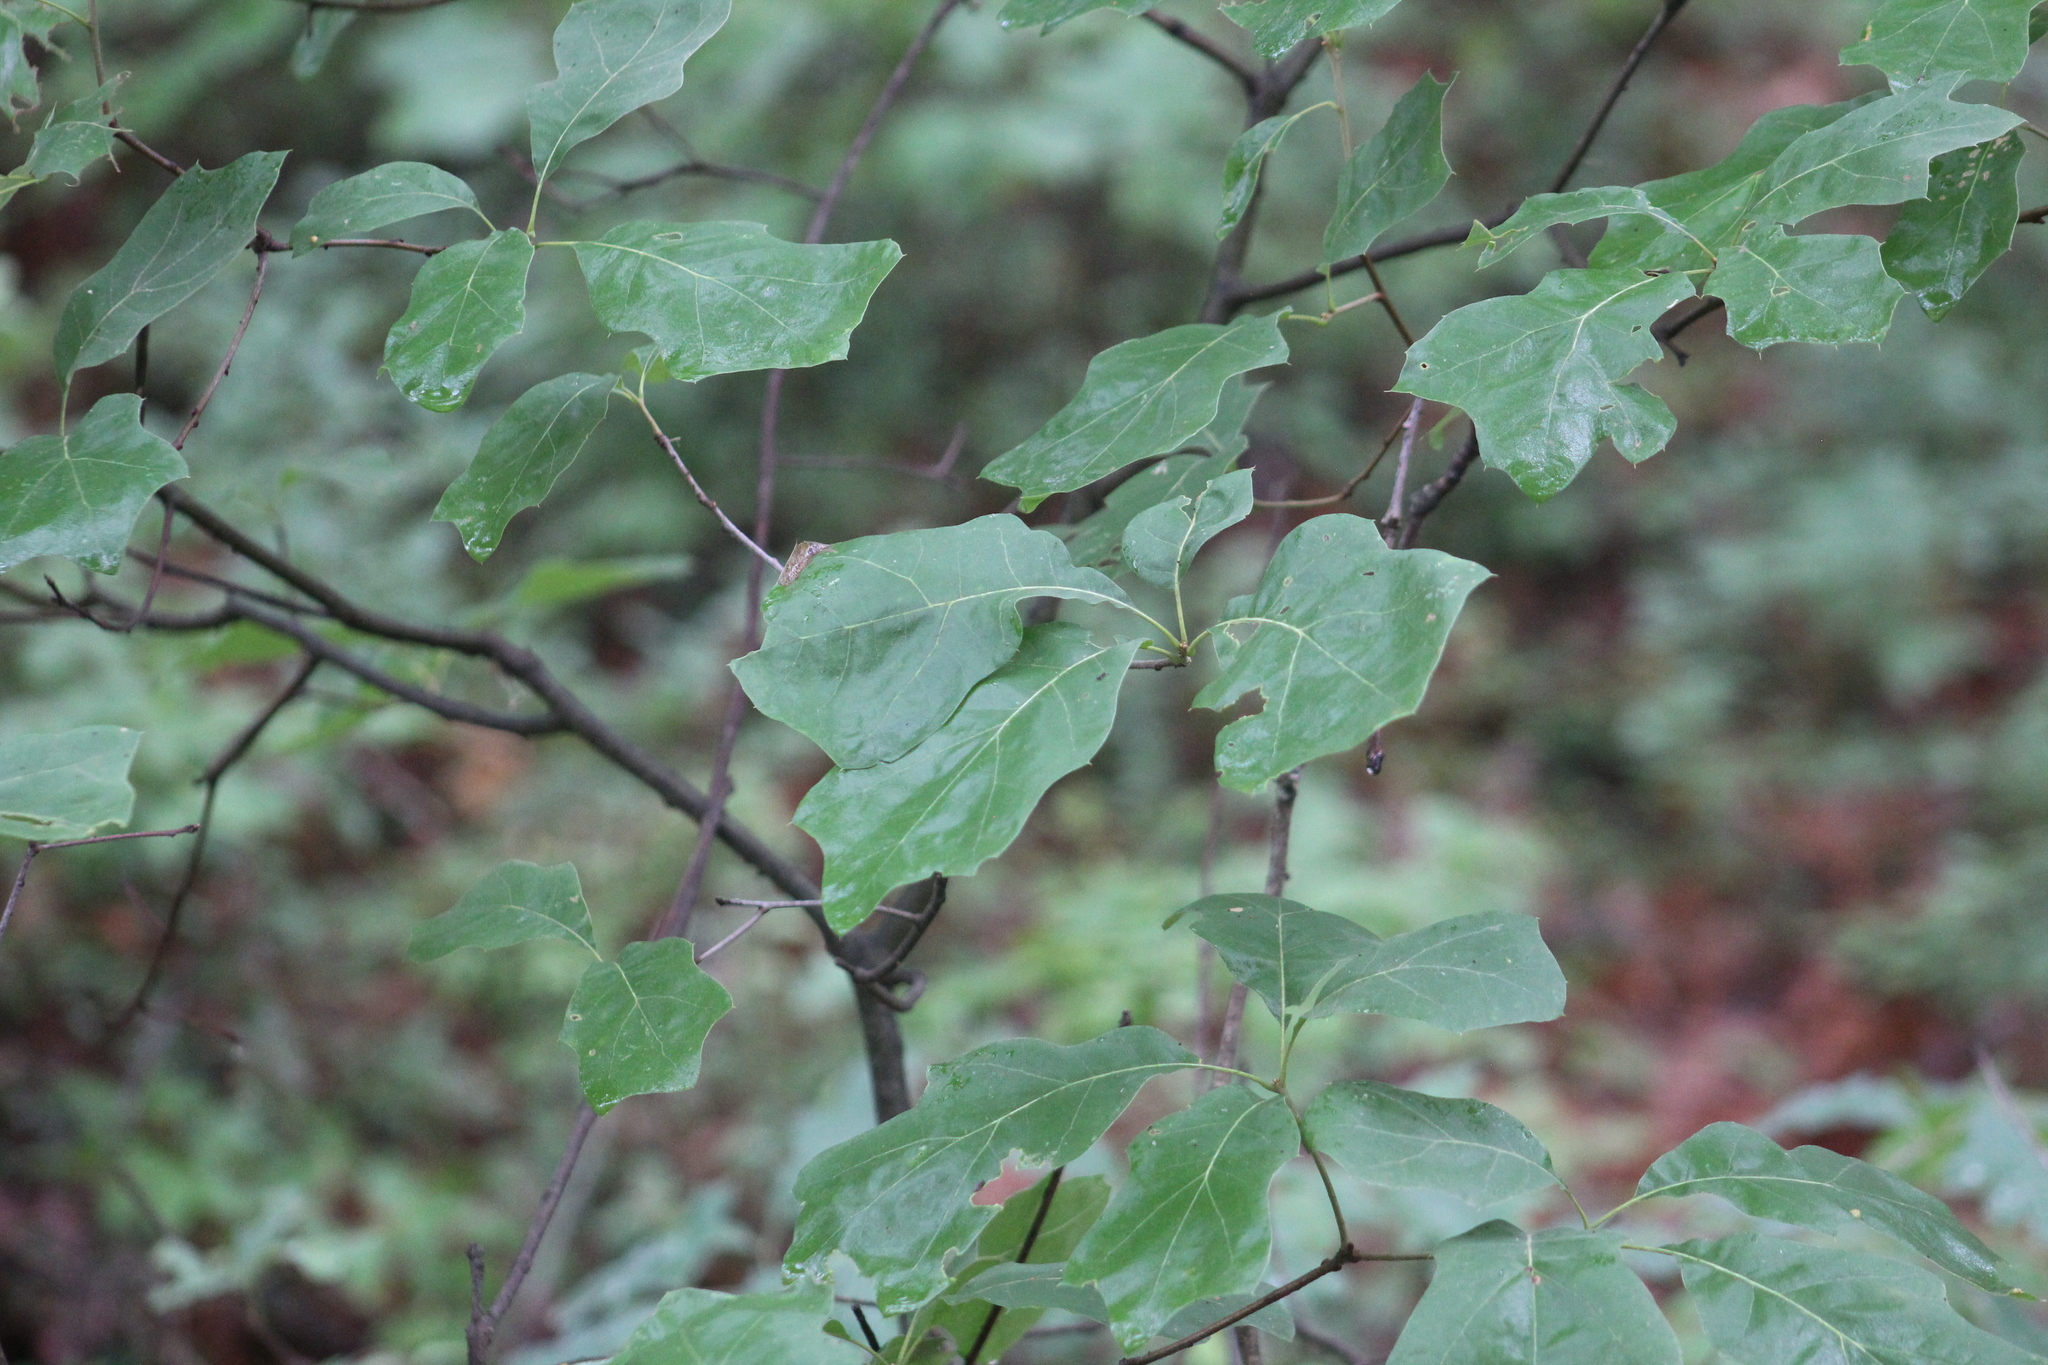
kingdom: Plantae
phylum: Tracheophyta
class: Magnoliopsida
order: Fagales
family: Fagaceae
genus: Quercus
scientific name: Quercus ilicifolia
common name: Bear oak
